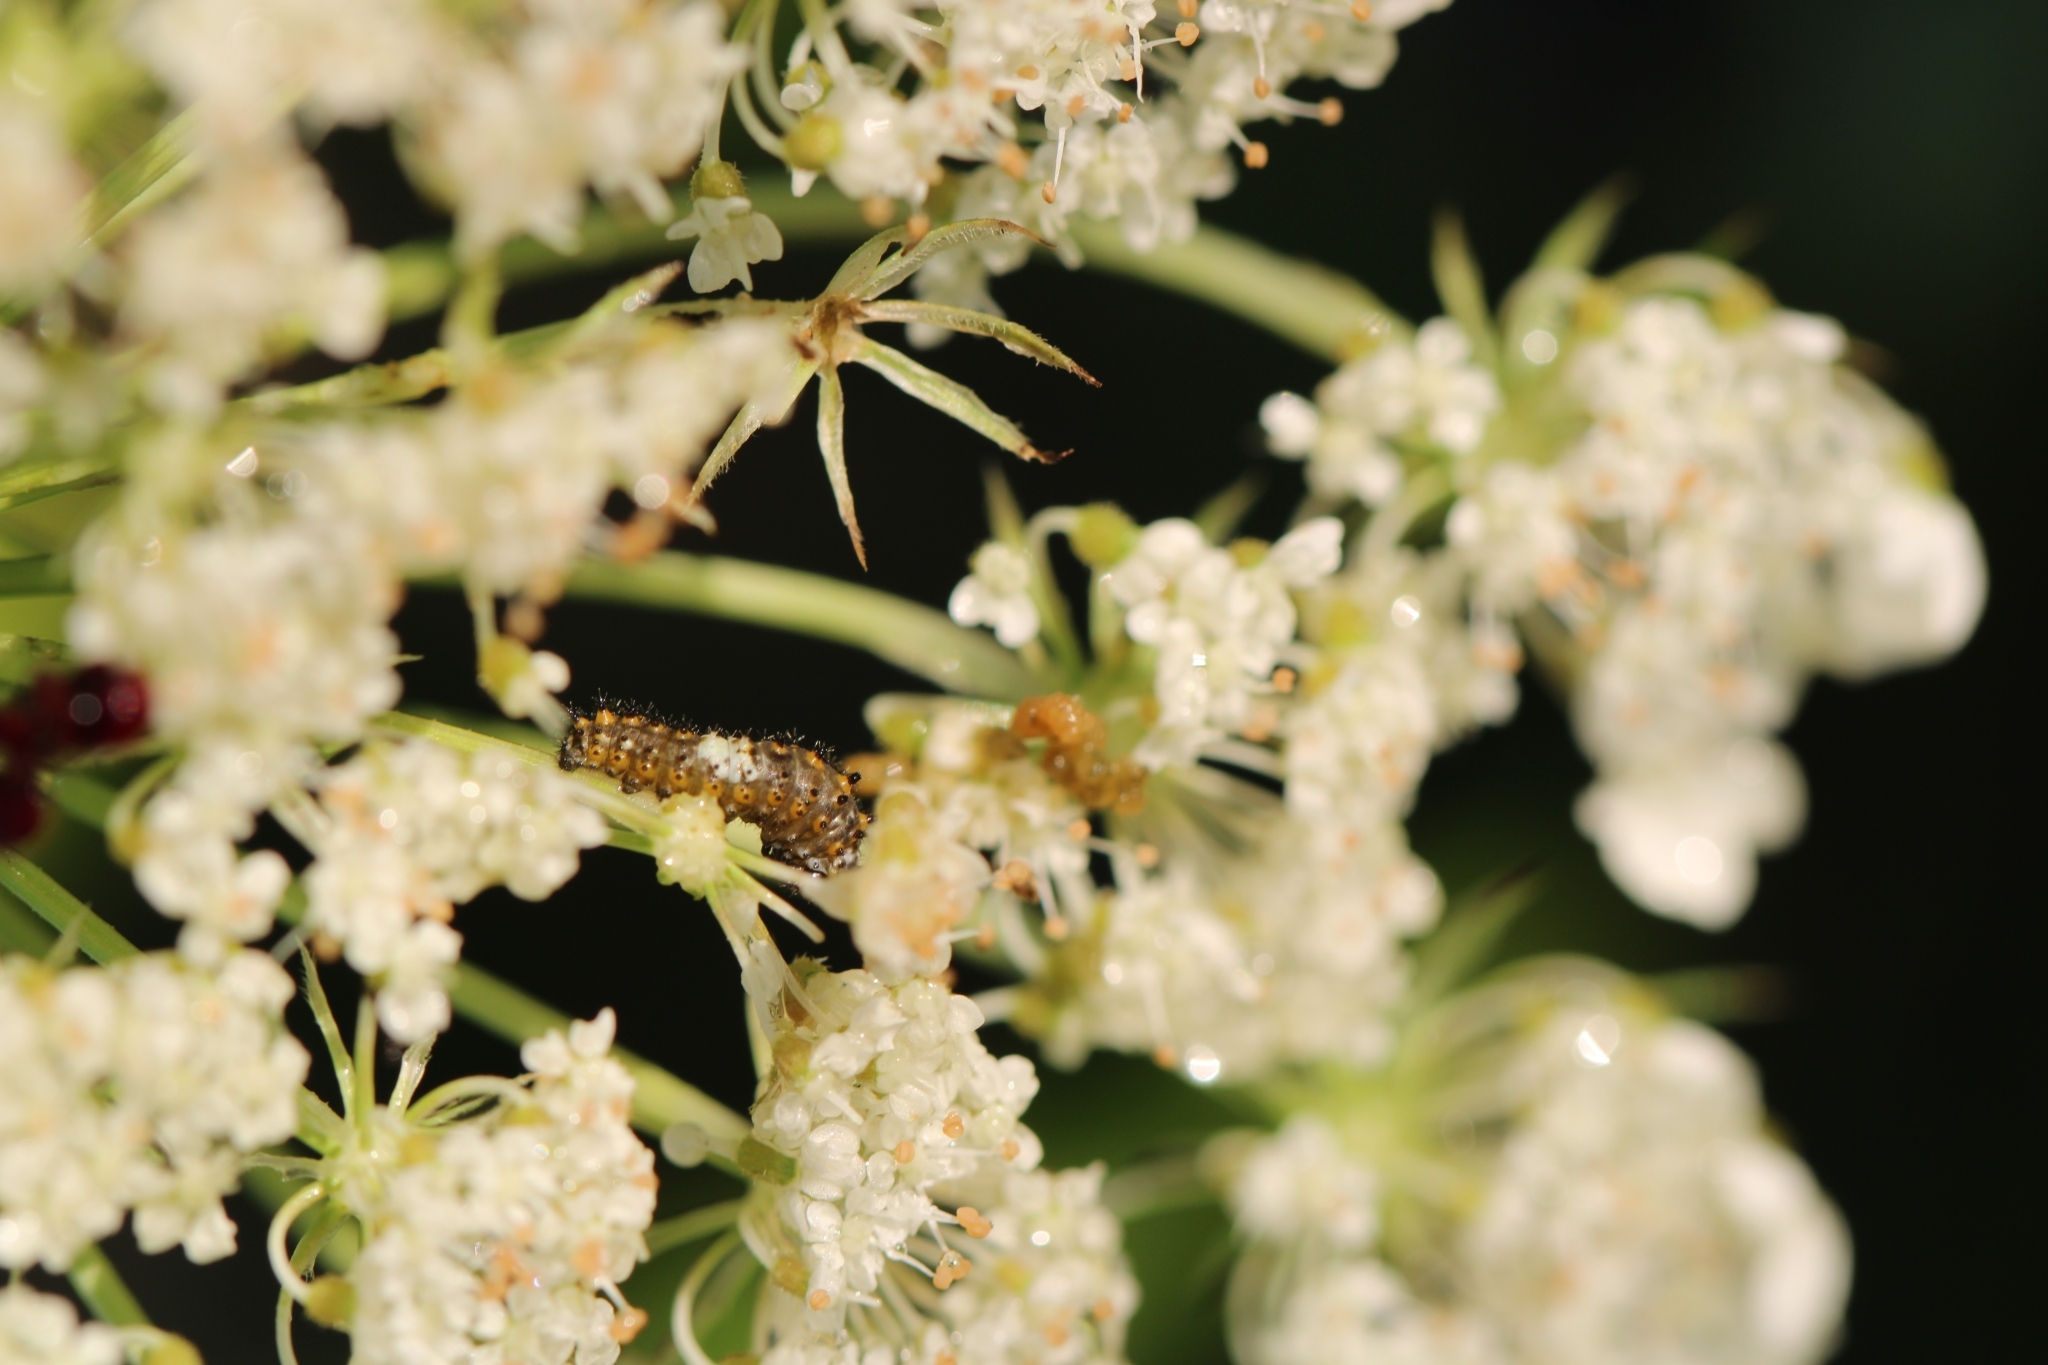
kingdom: Animalia
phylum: Arthropoda
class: Insecta
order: Lepidoptera
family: Papilionidae
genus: Papilio
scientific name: Papilio polyxenes
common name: Black swallowtail
